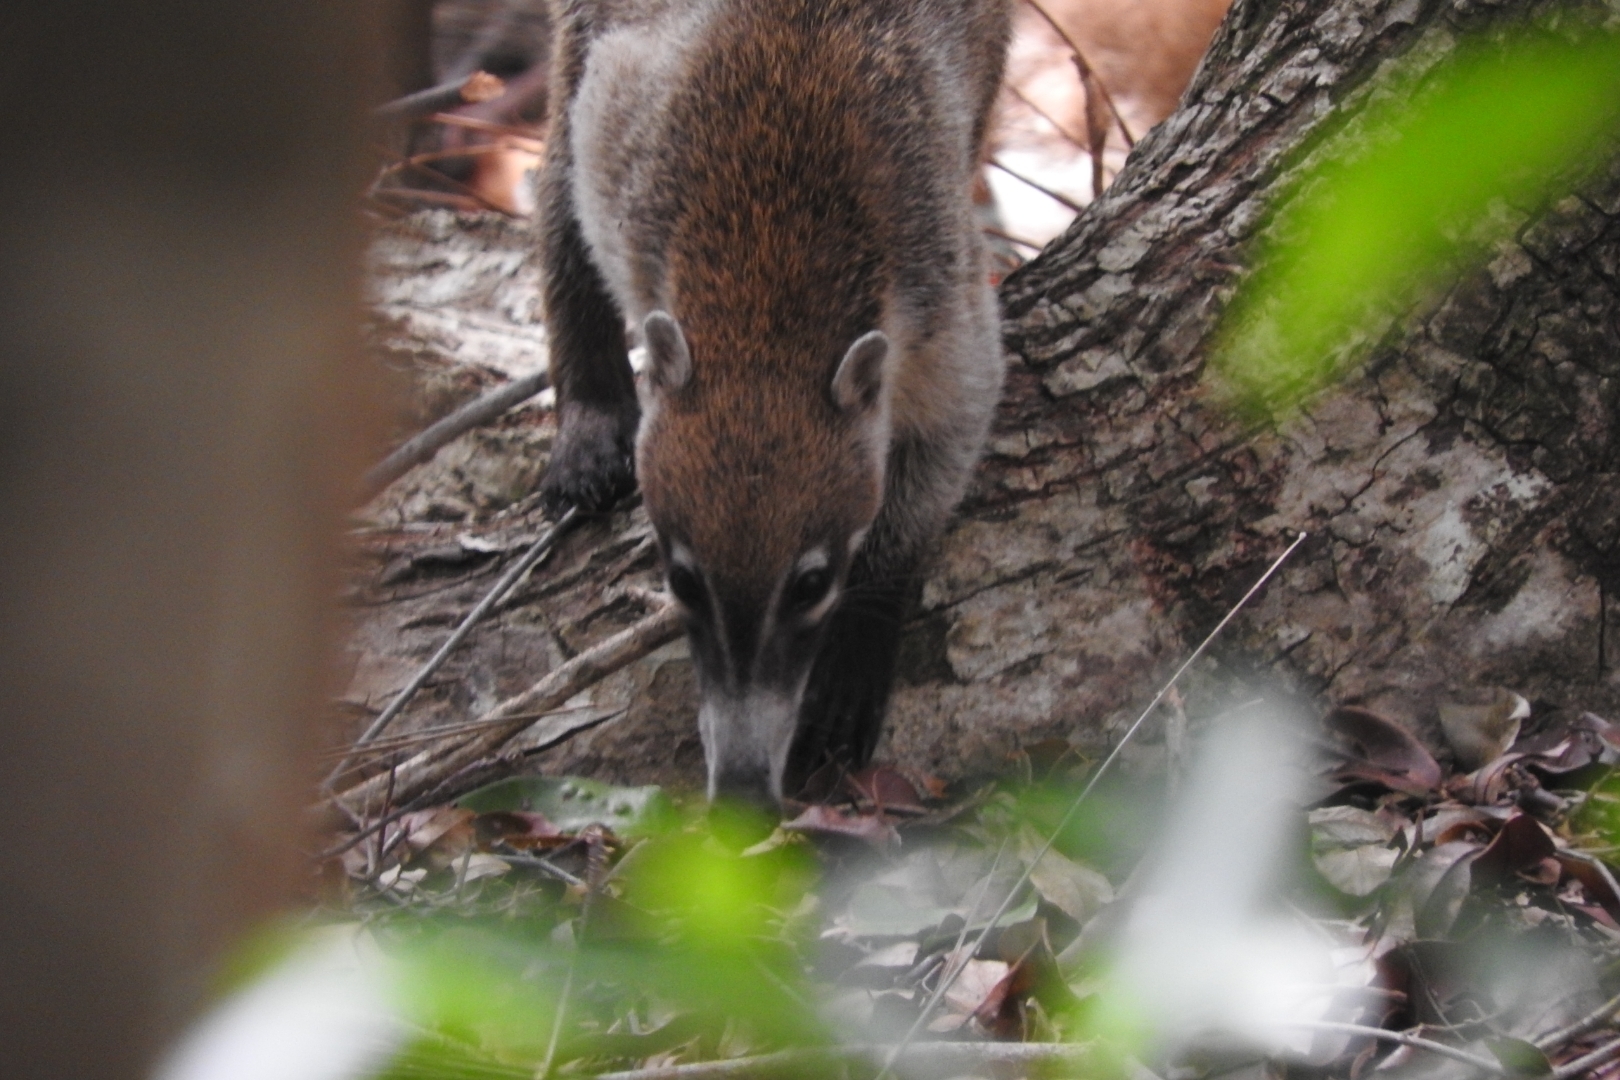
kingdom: Animalia
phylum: Chordata
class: Mammalia
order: Carnivora
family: Procyonidae
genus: Nasua
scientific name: Nasua narica
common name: White-nosed coati
